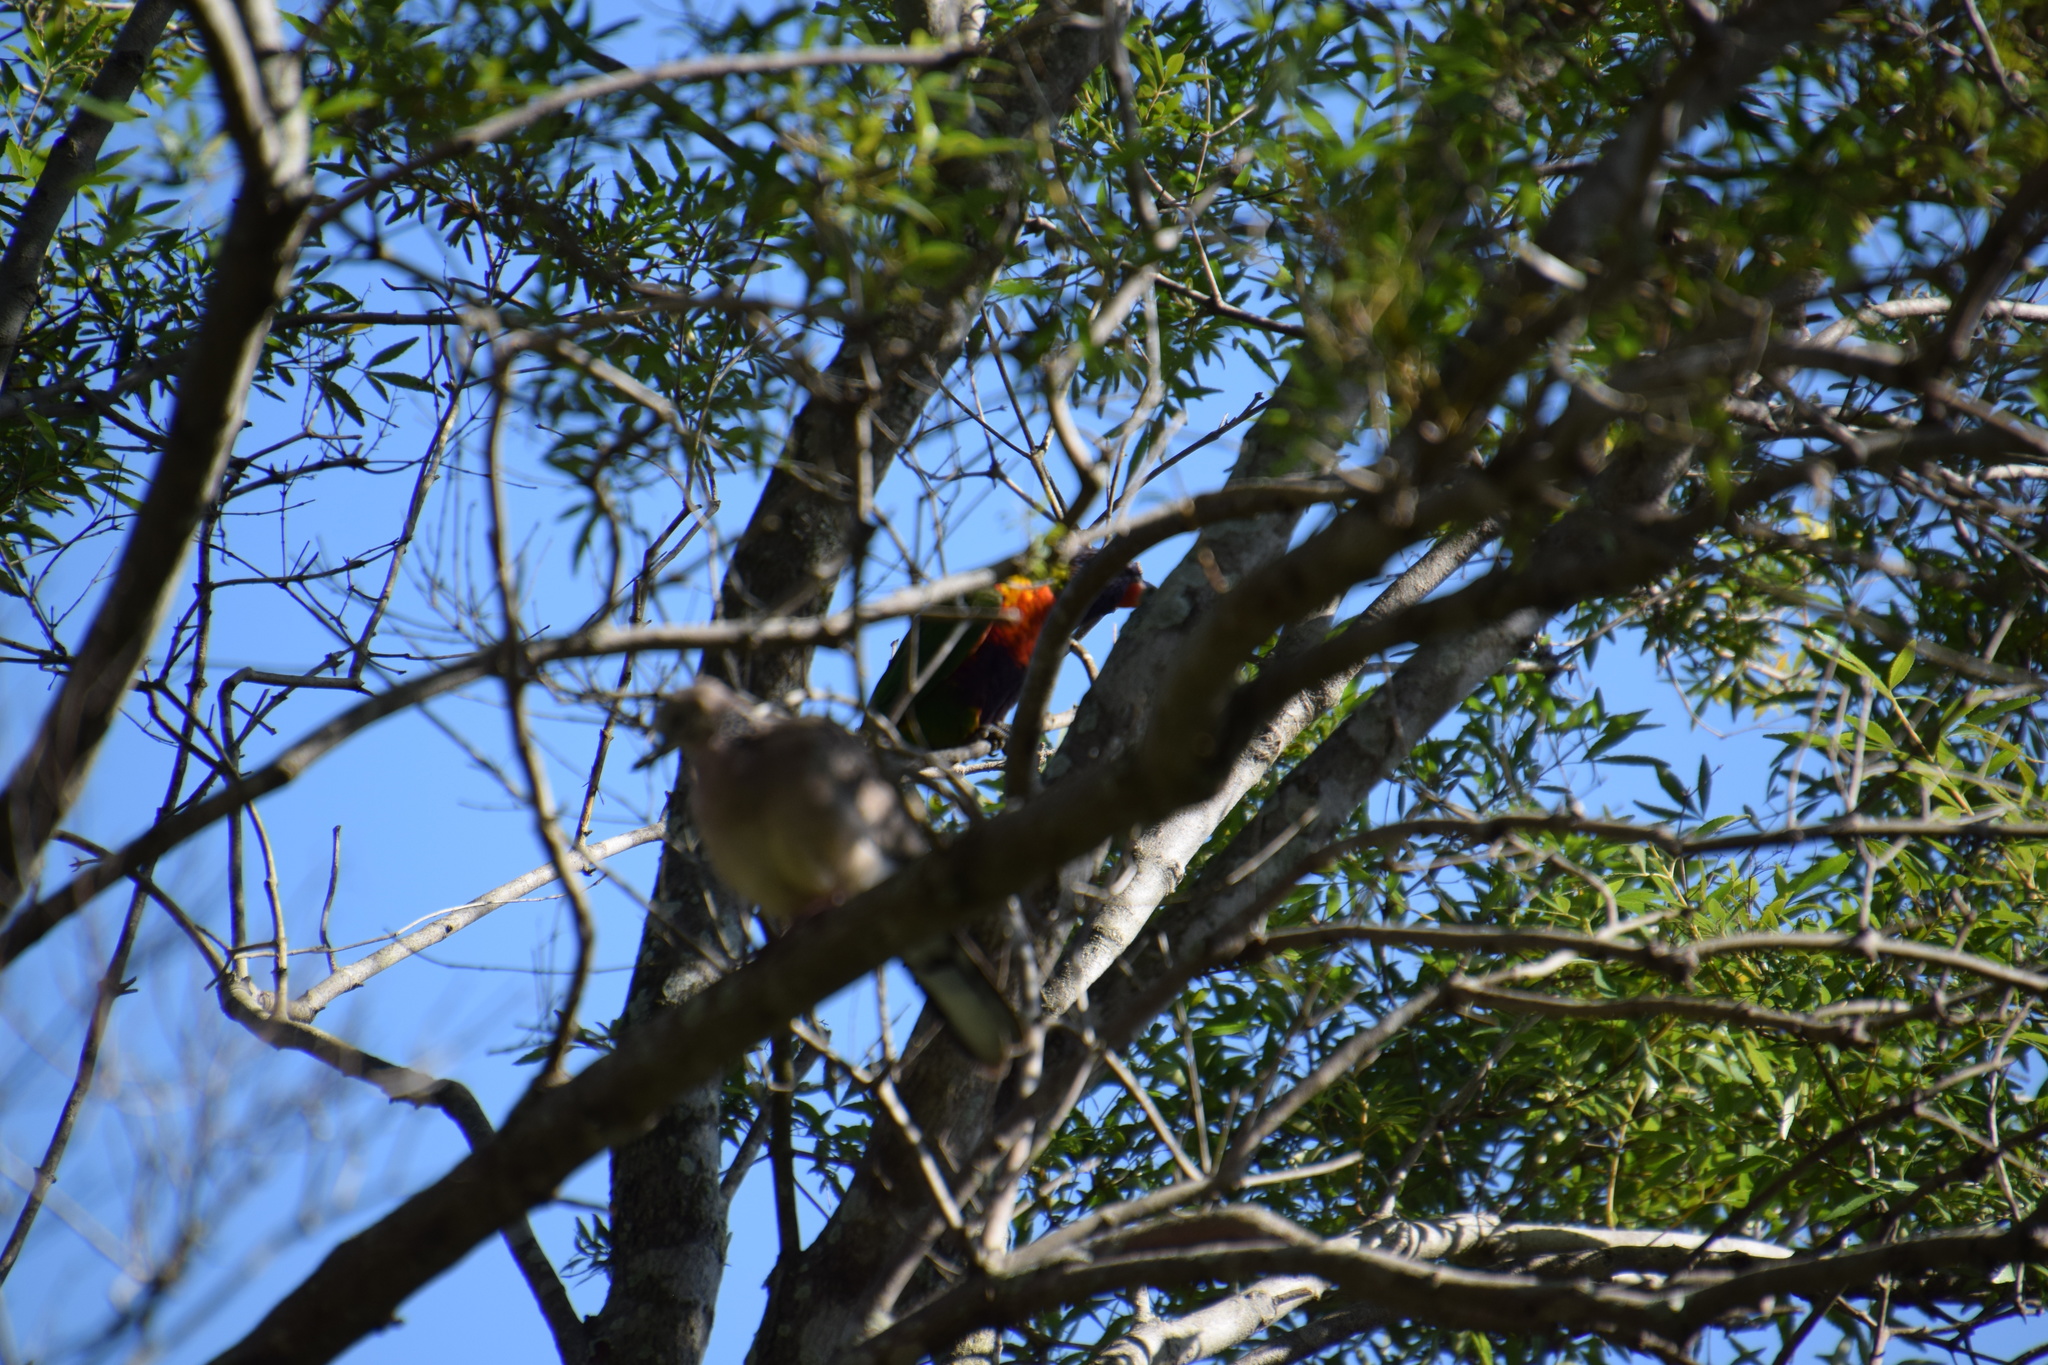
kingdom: Animalia
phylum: Chordata
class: Aves
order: Psittaciformes
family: Psittacidae
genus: Trichoglossus
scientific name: Trichoglossus haematodus
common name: Coconut lorikeet
